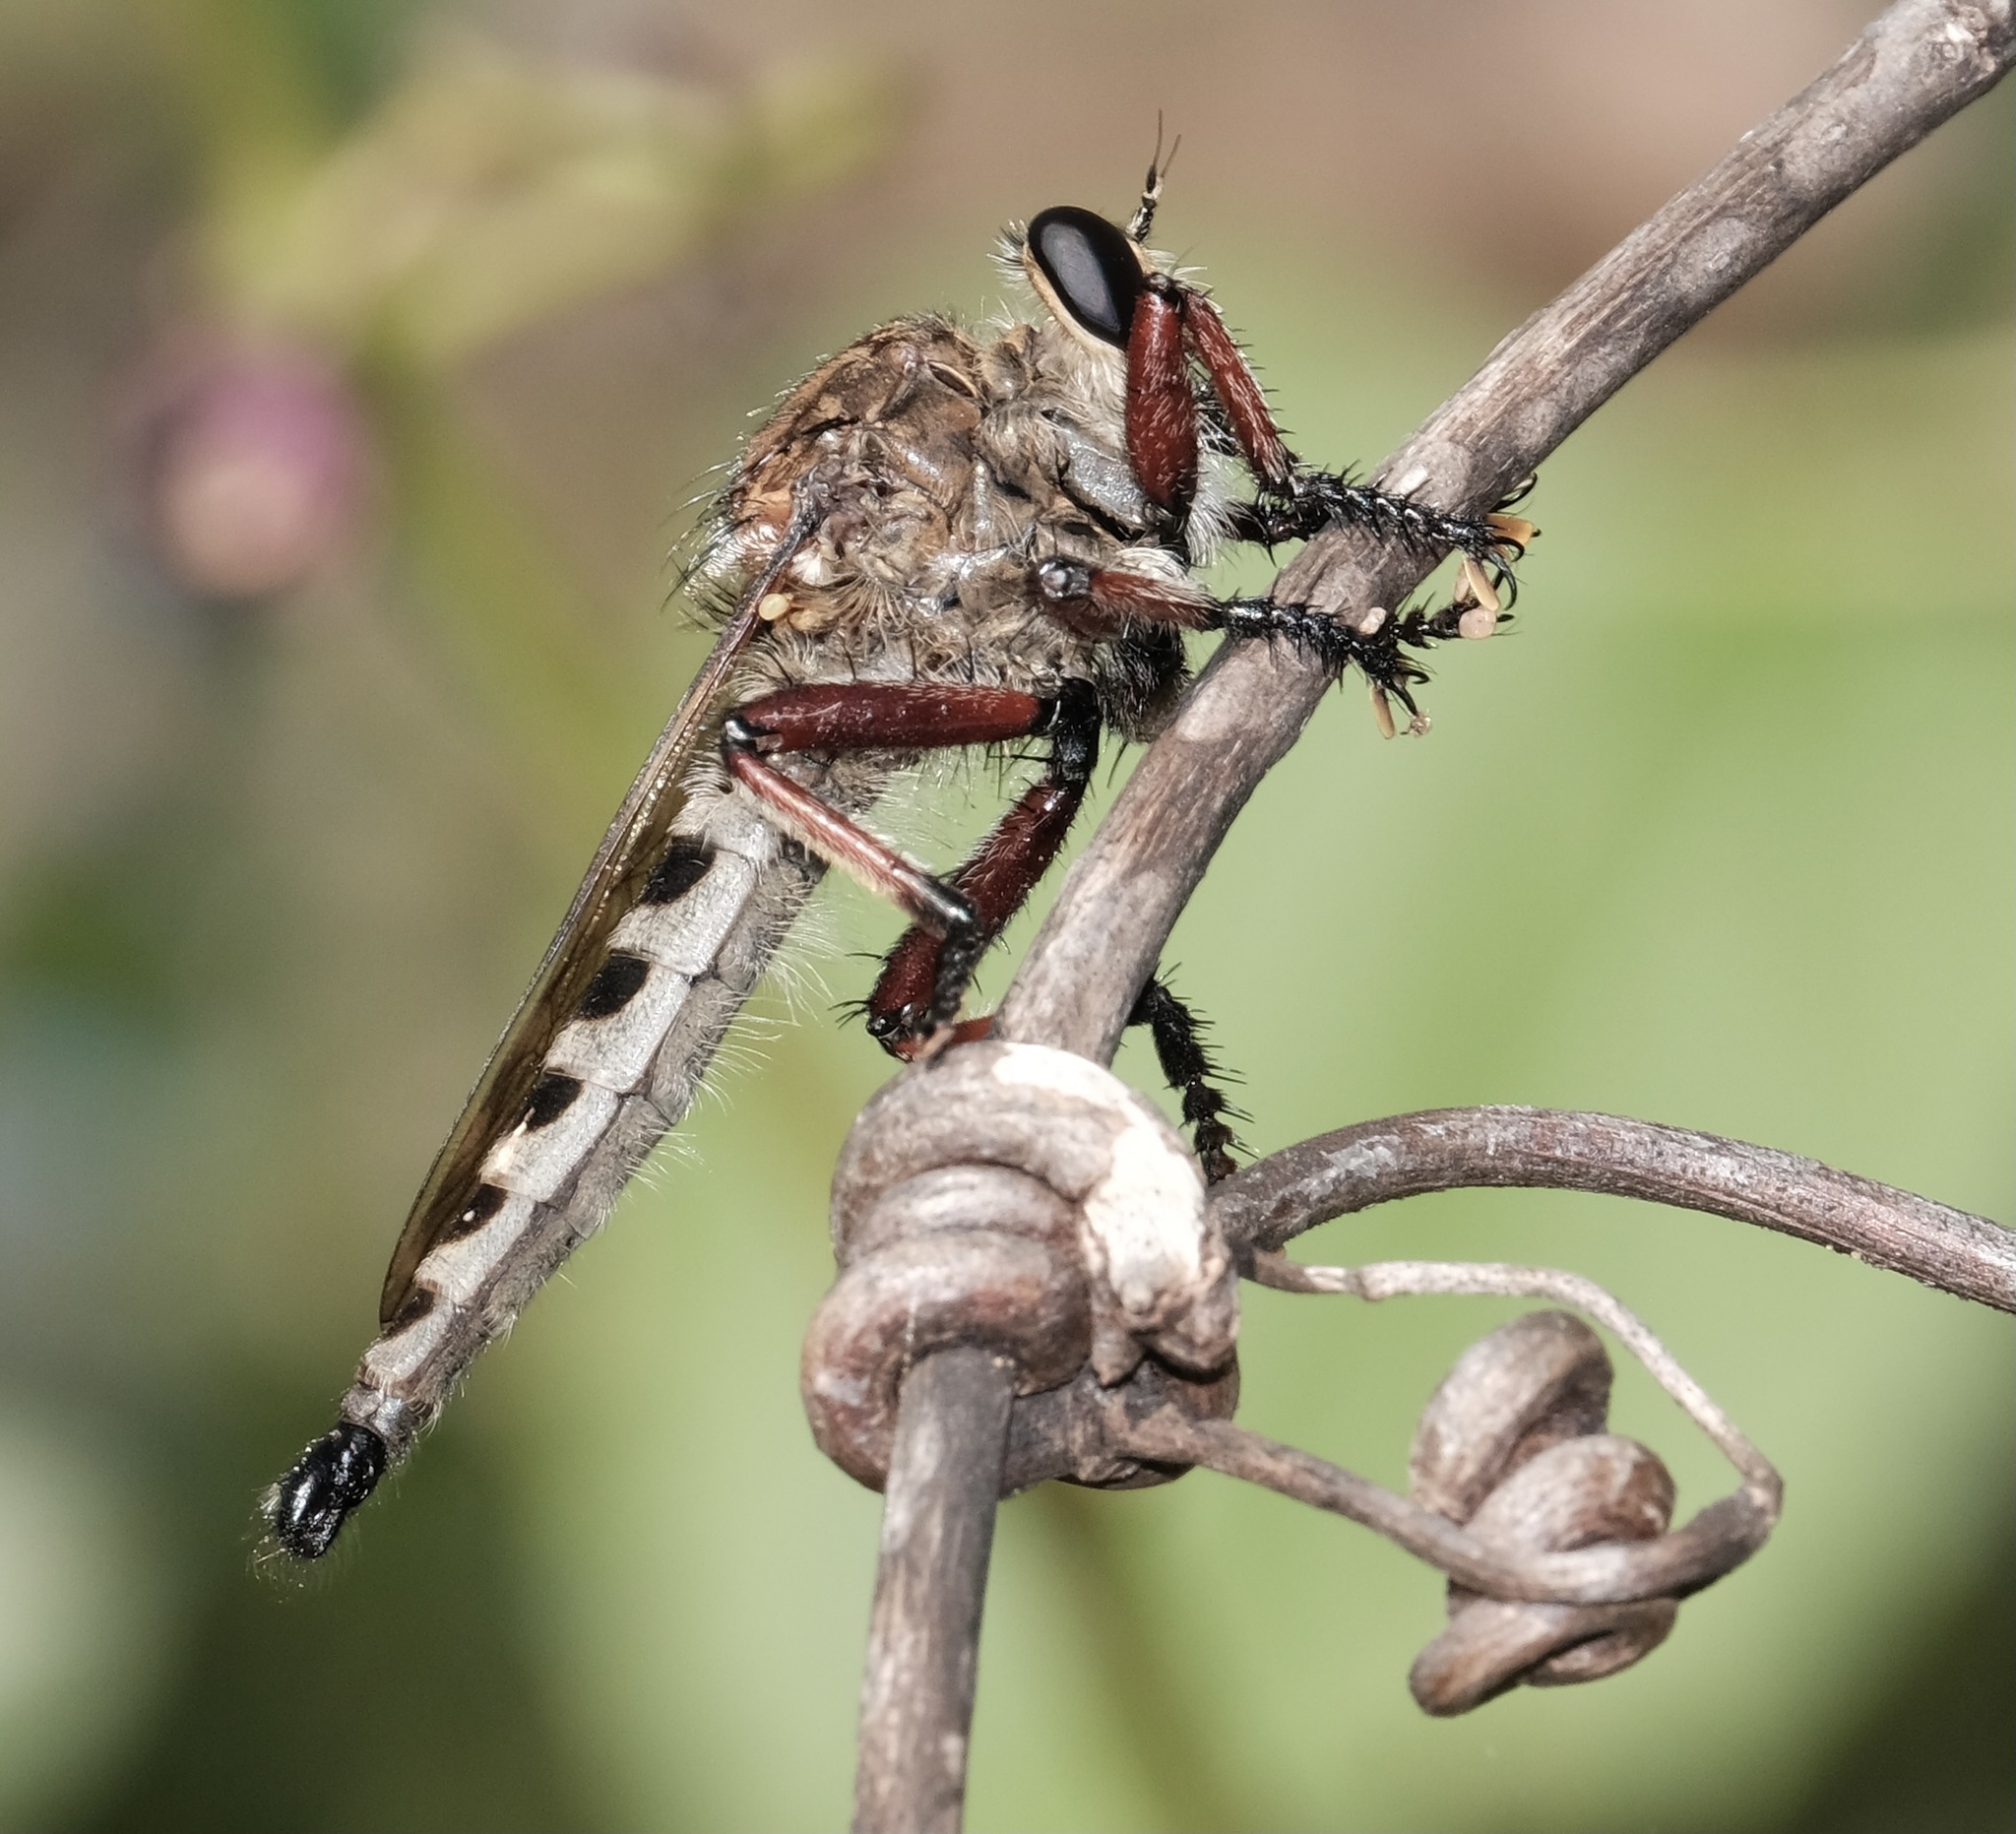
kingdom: Animalia
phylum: Arthropoda
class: Insecta
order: Diptera
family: Asilidae
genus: Promachus
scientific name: Promachus hinei
